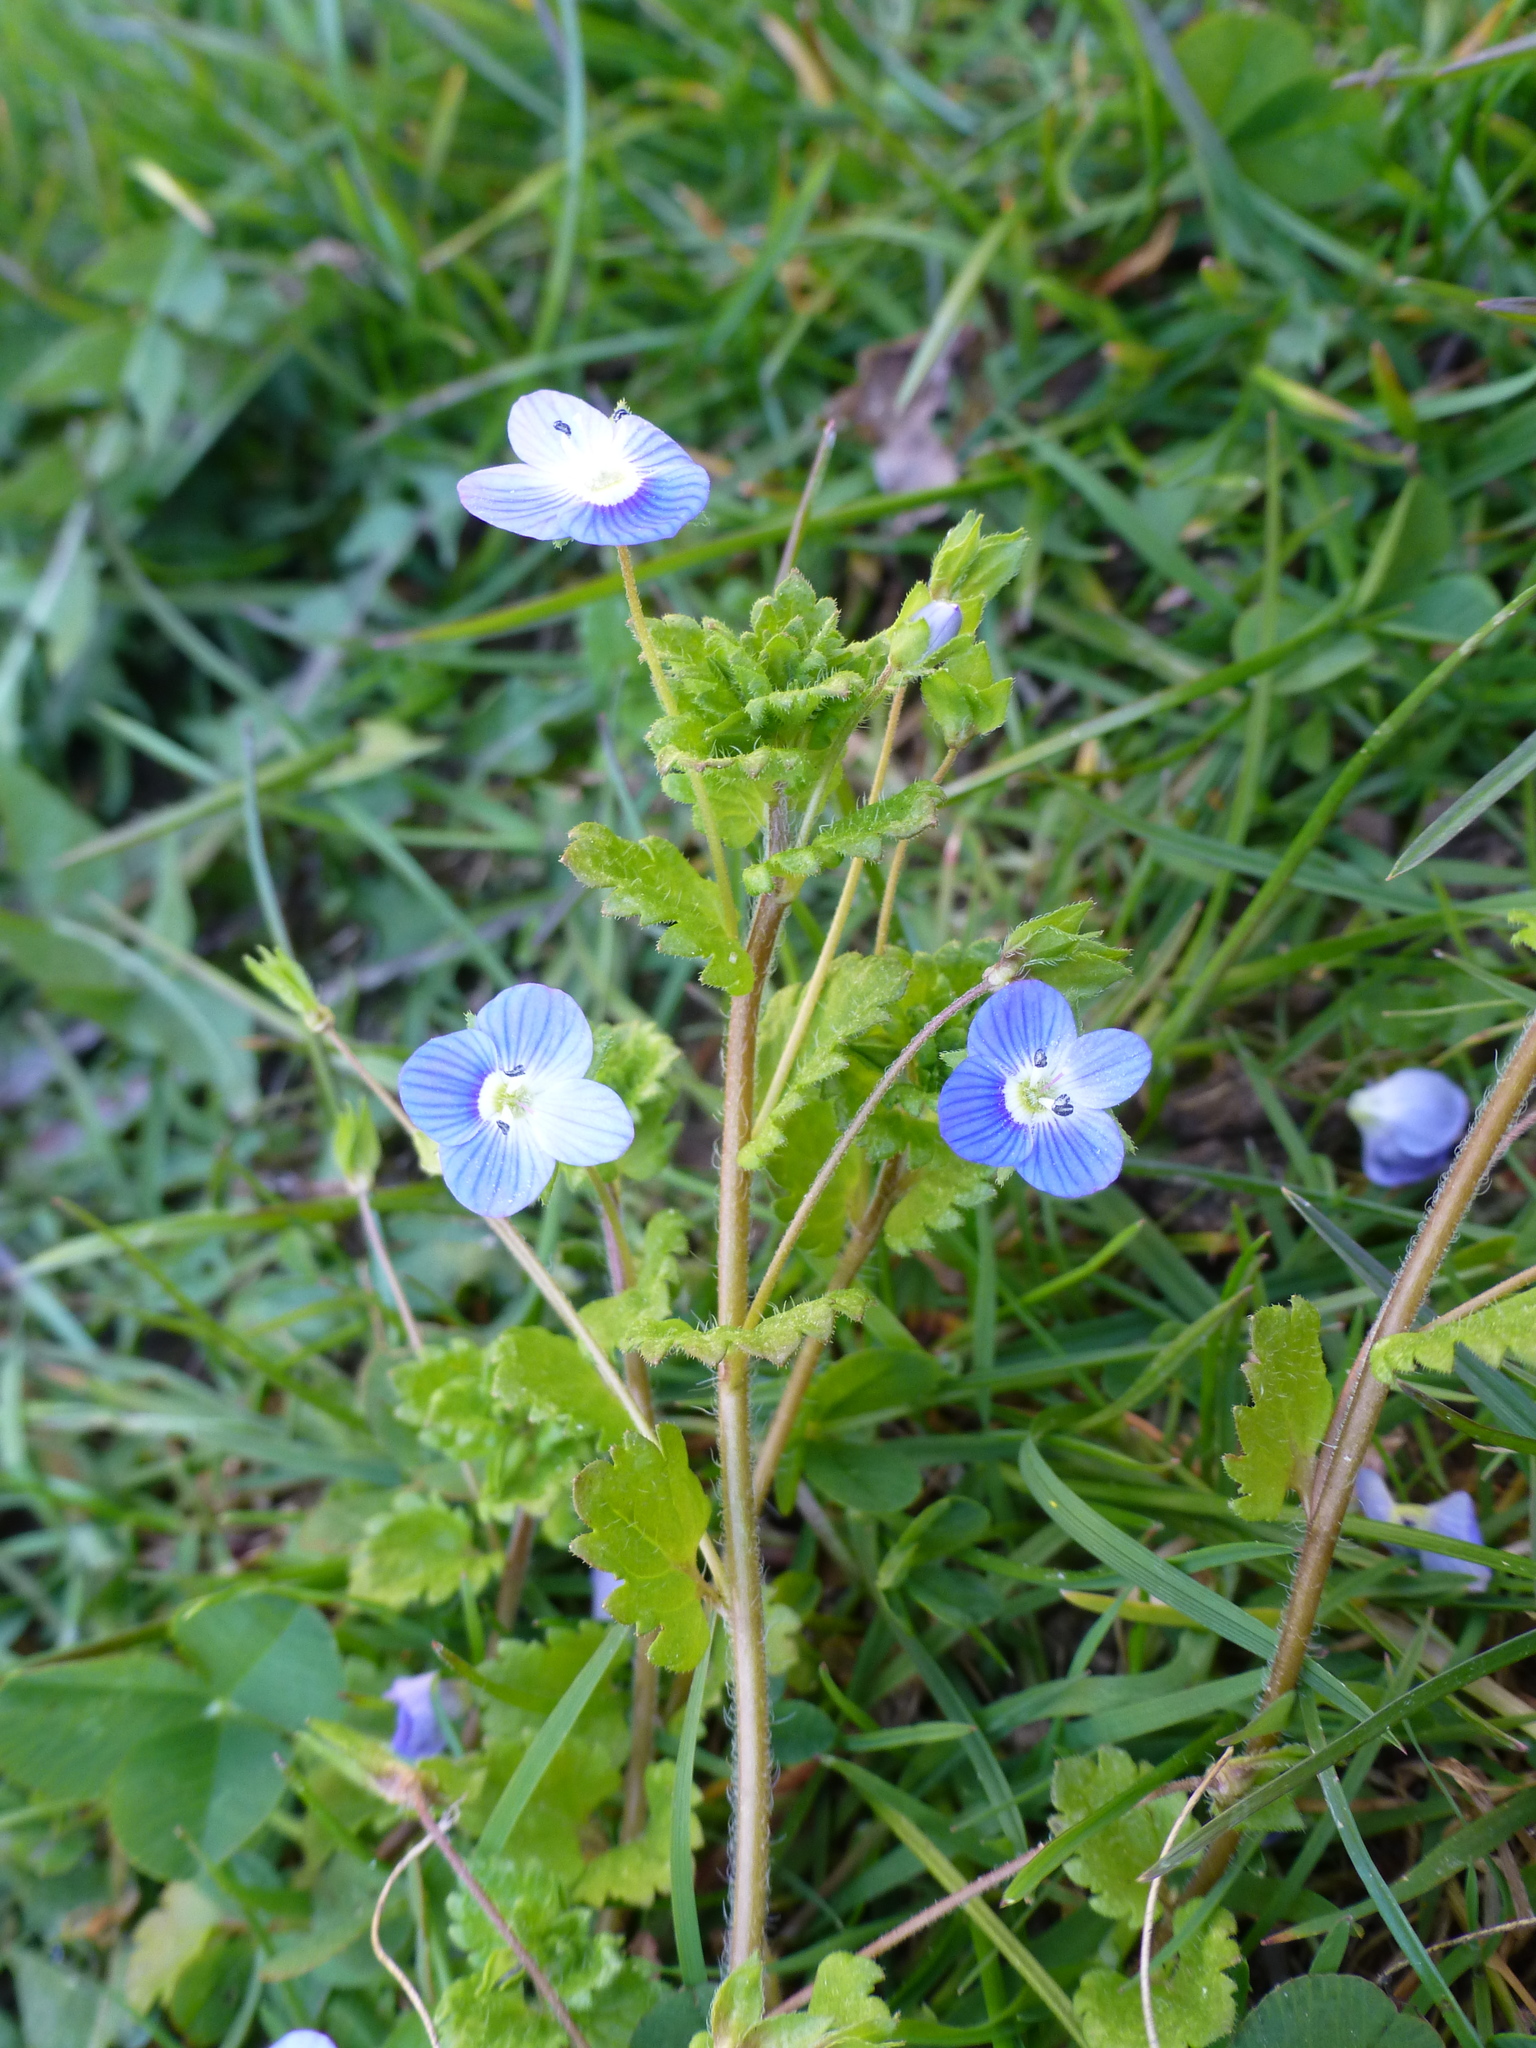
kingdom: Plantae
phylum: Tracheophyta
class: Magnoliopsida
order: Lamiales
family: Plantaginaceae
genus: Veronica
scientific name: Veronica persica
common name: Common field-speedwell
